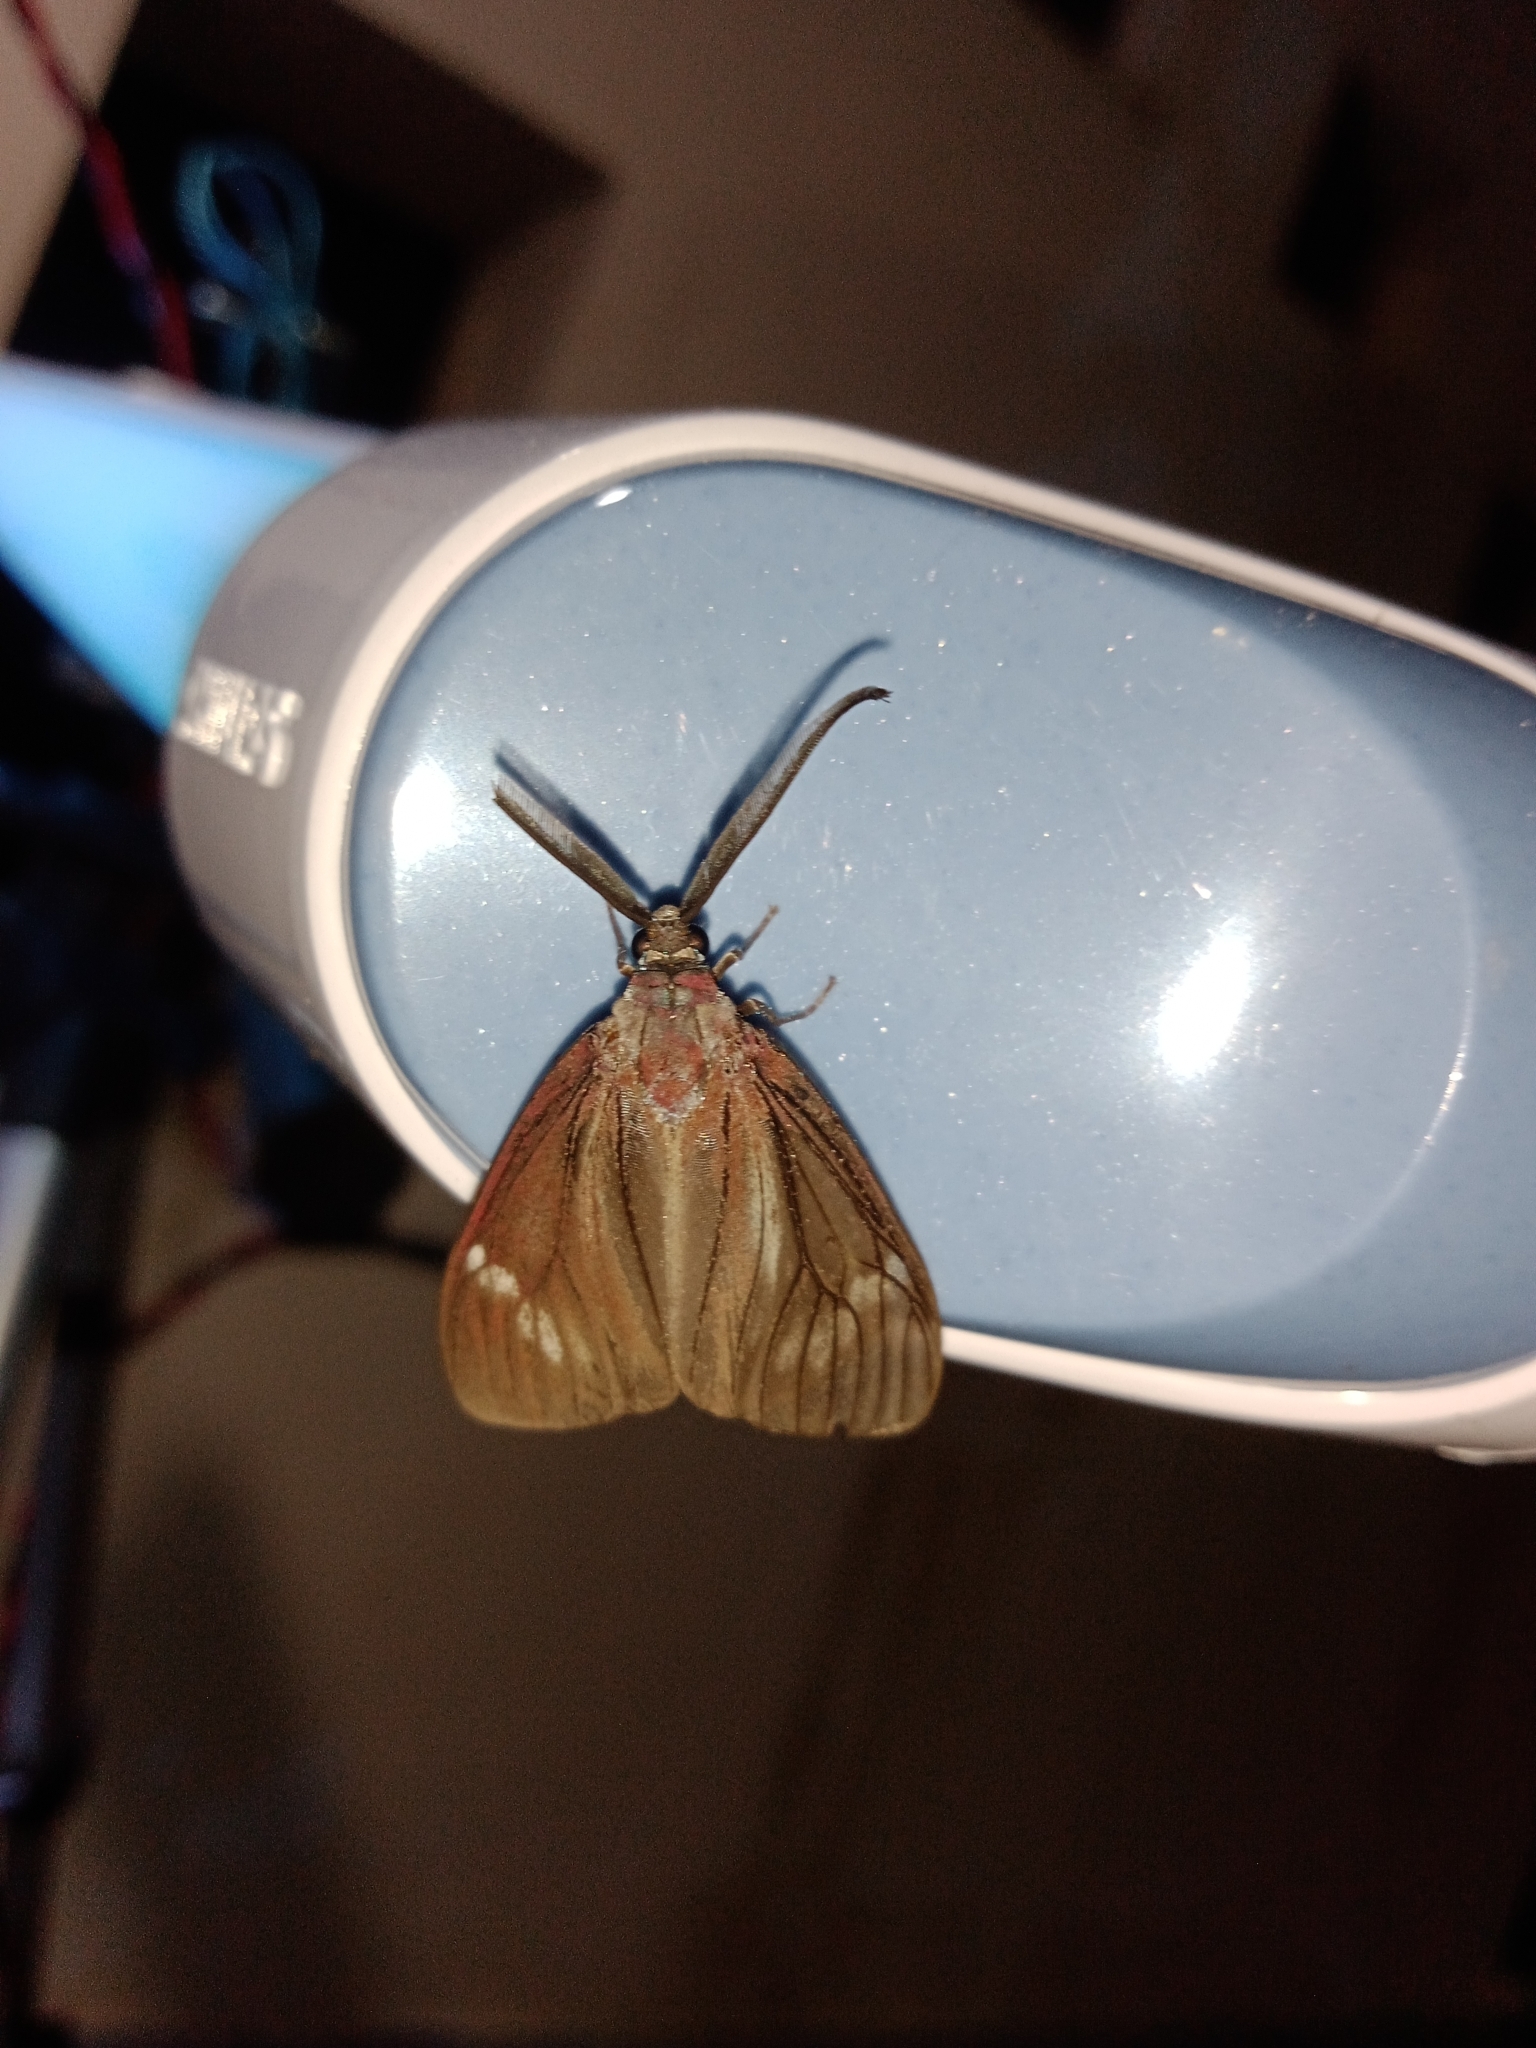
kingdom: Animalia
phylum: Arthropoda
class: Insecta
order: Lepidoptera
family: Zygaenidae
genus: Cyclosia
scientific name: Cyclosia
